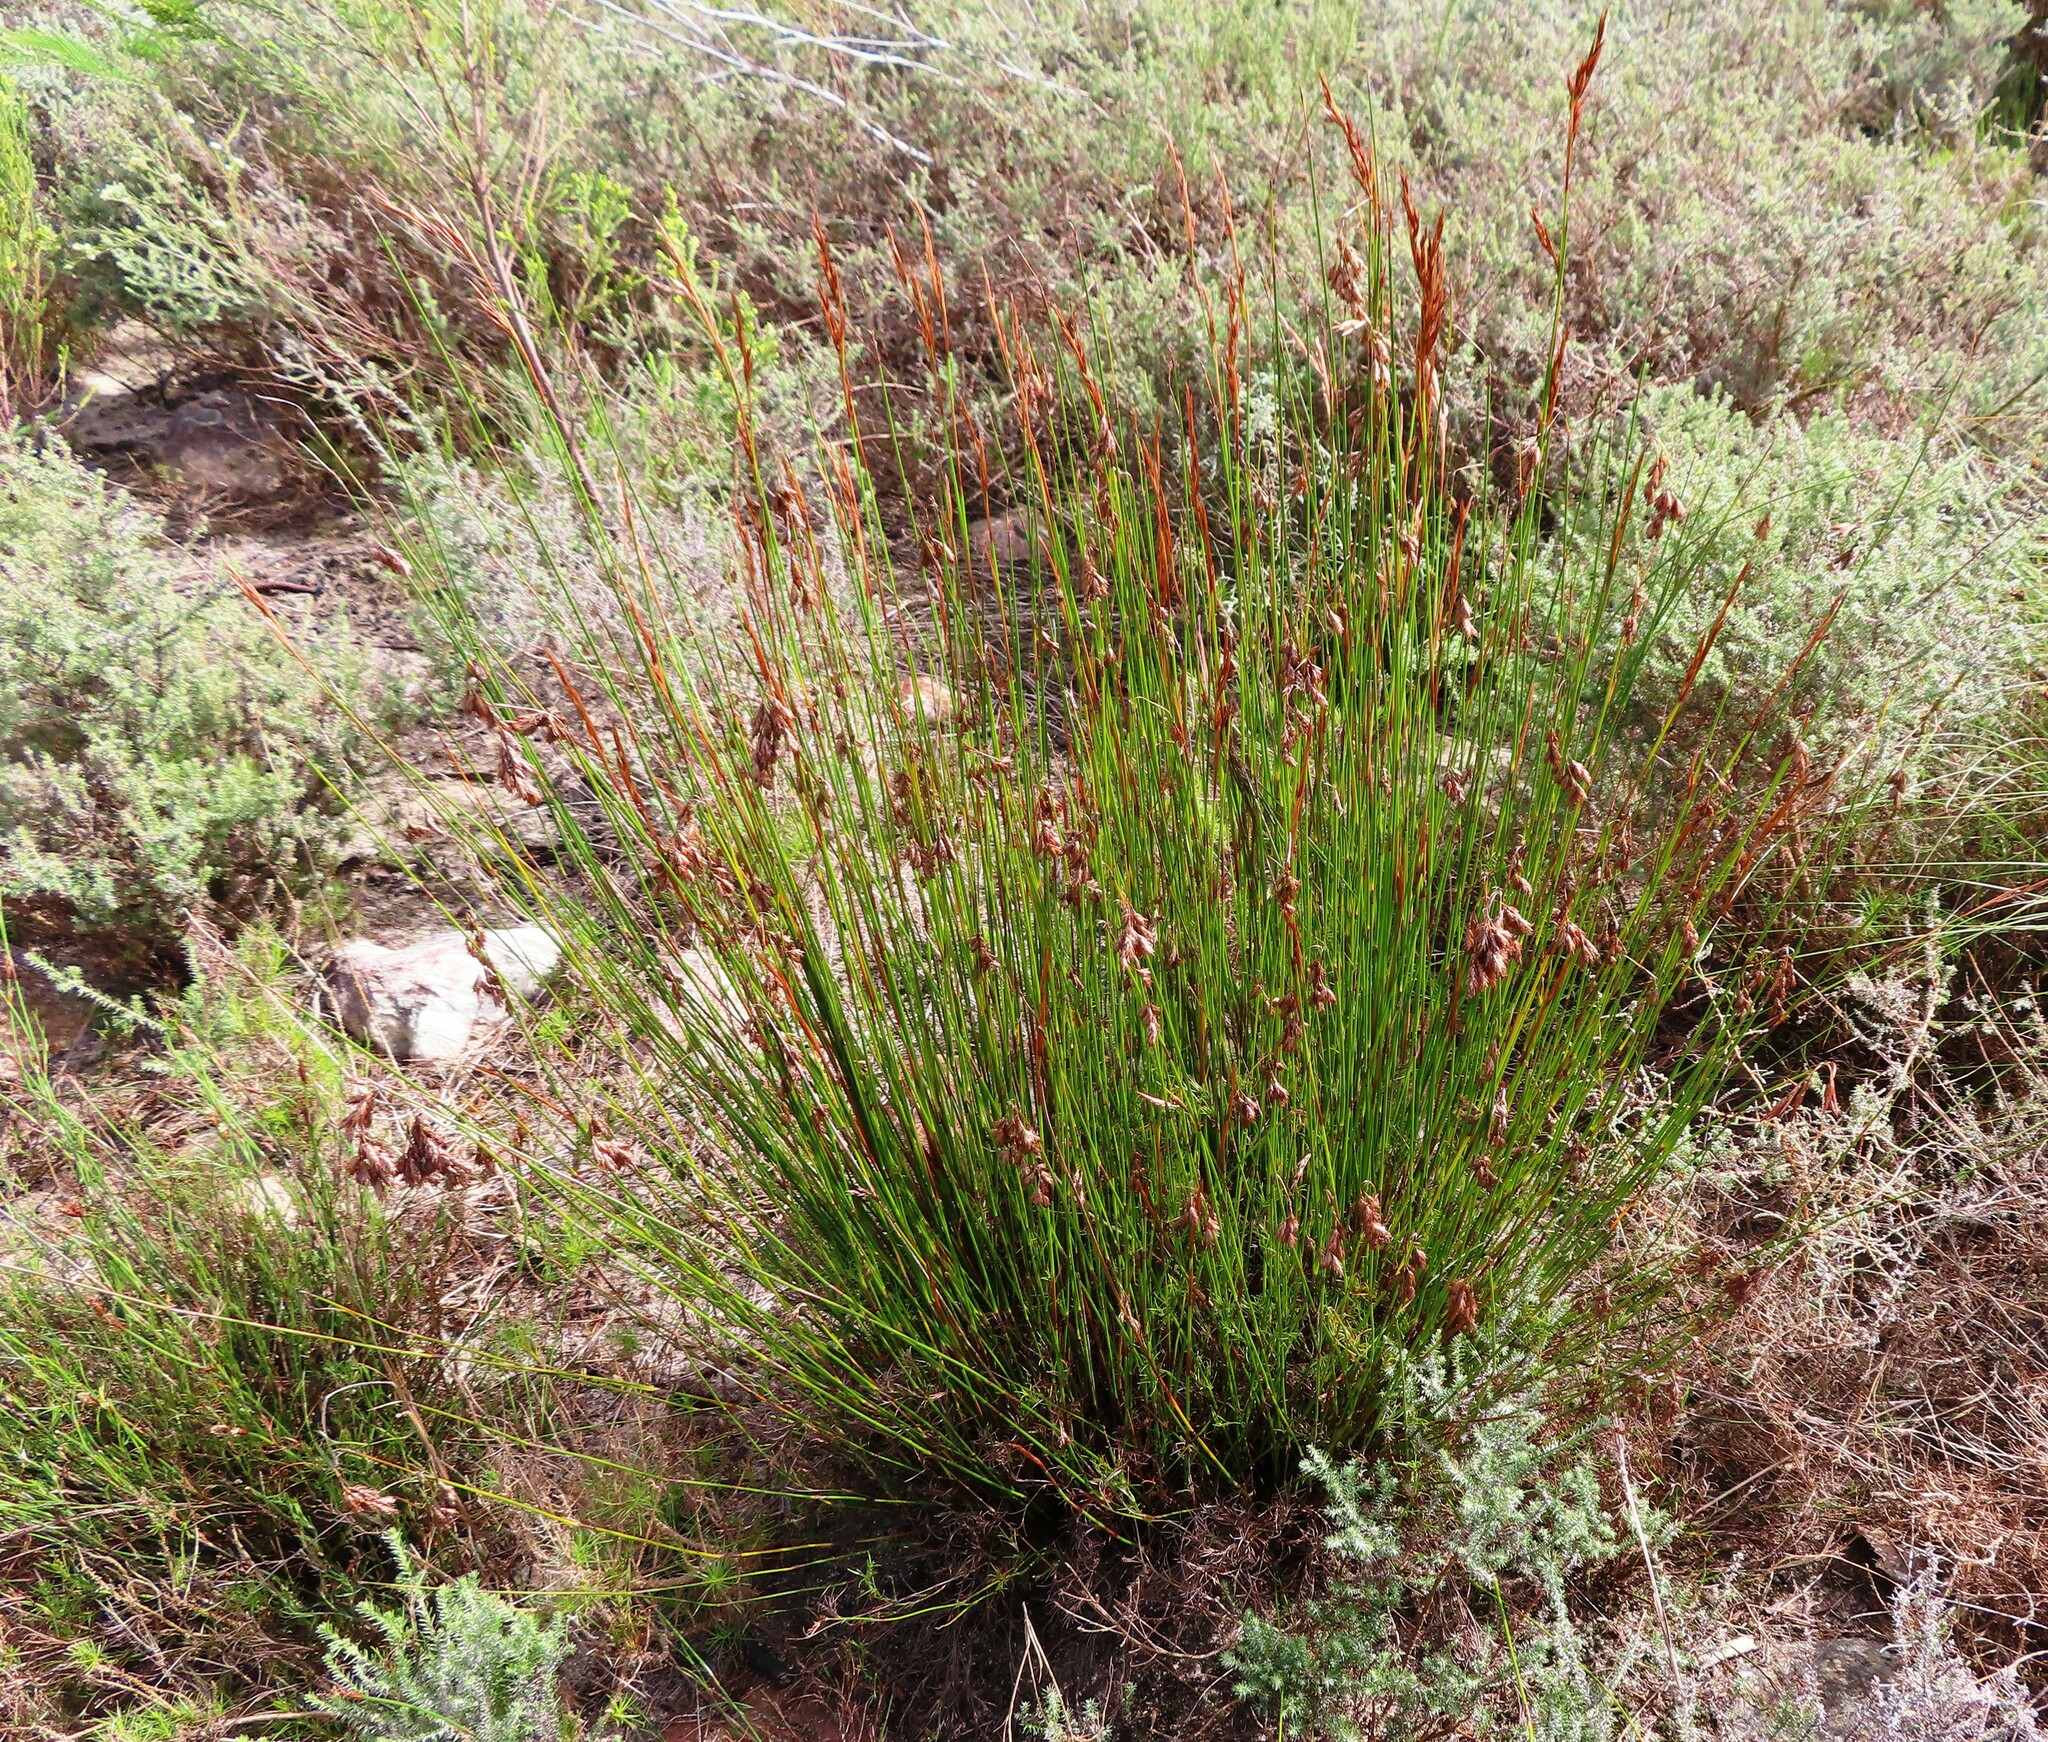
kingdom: Plantae
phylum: Tracheophyta
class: Liliopsida
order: Poales
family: Cyperaceae
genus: Tetraria
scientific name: Tetraria ustulata
